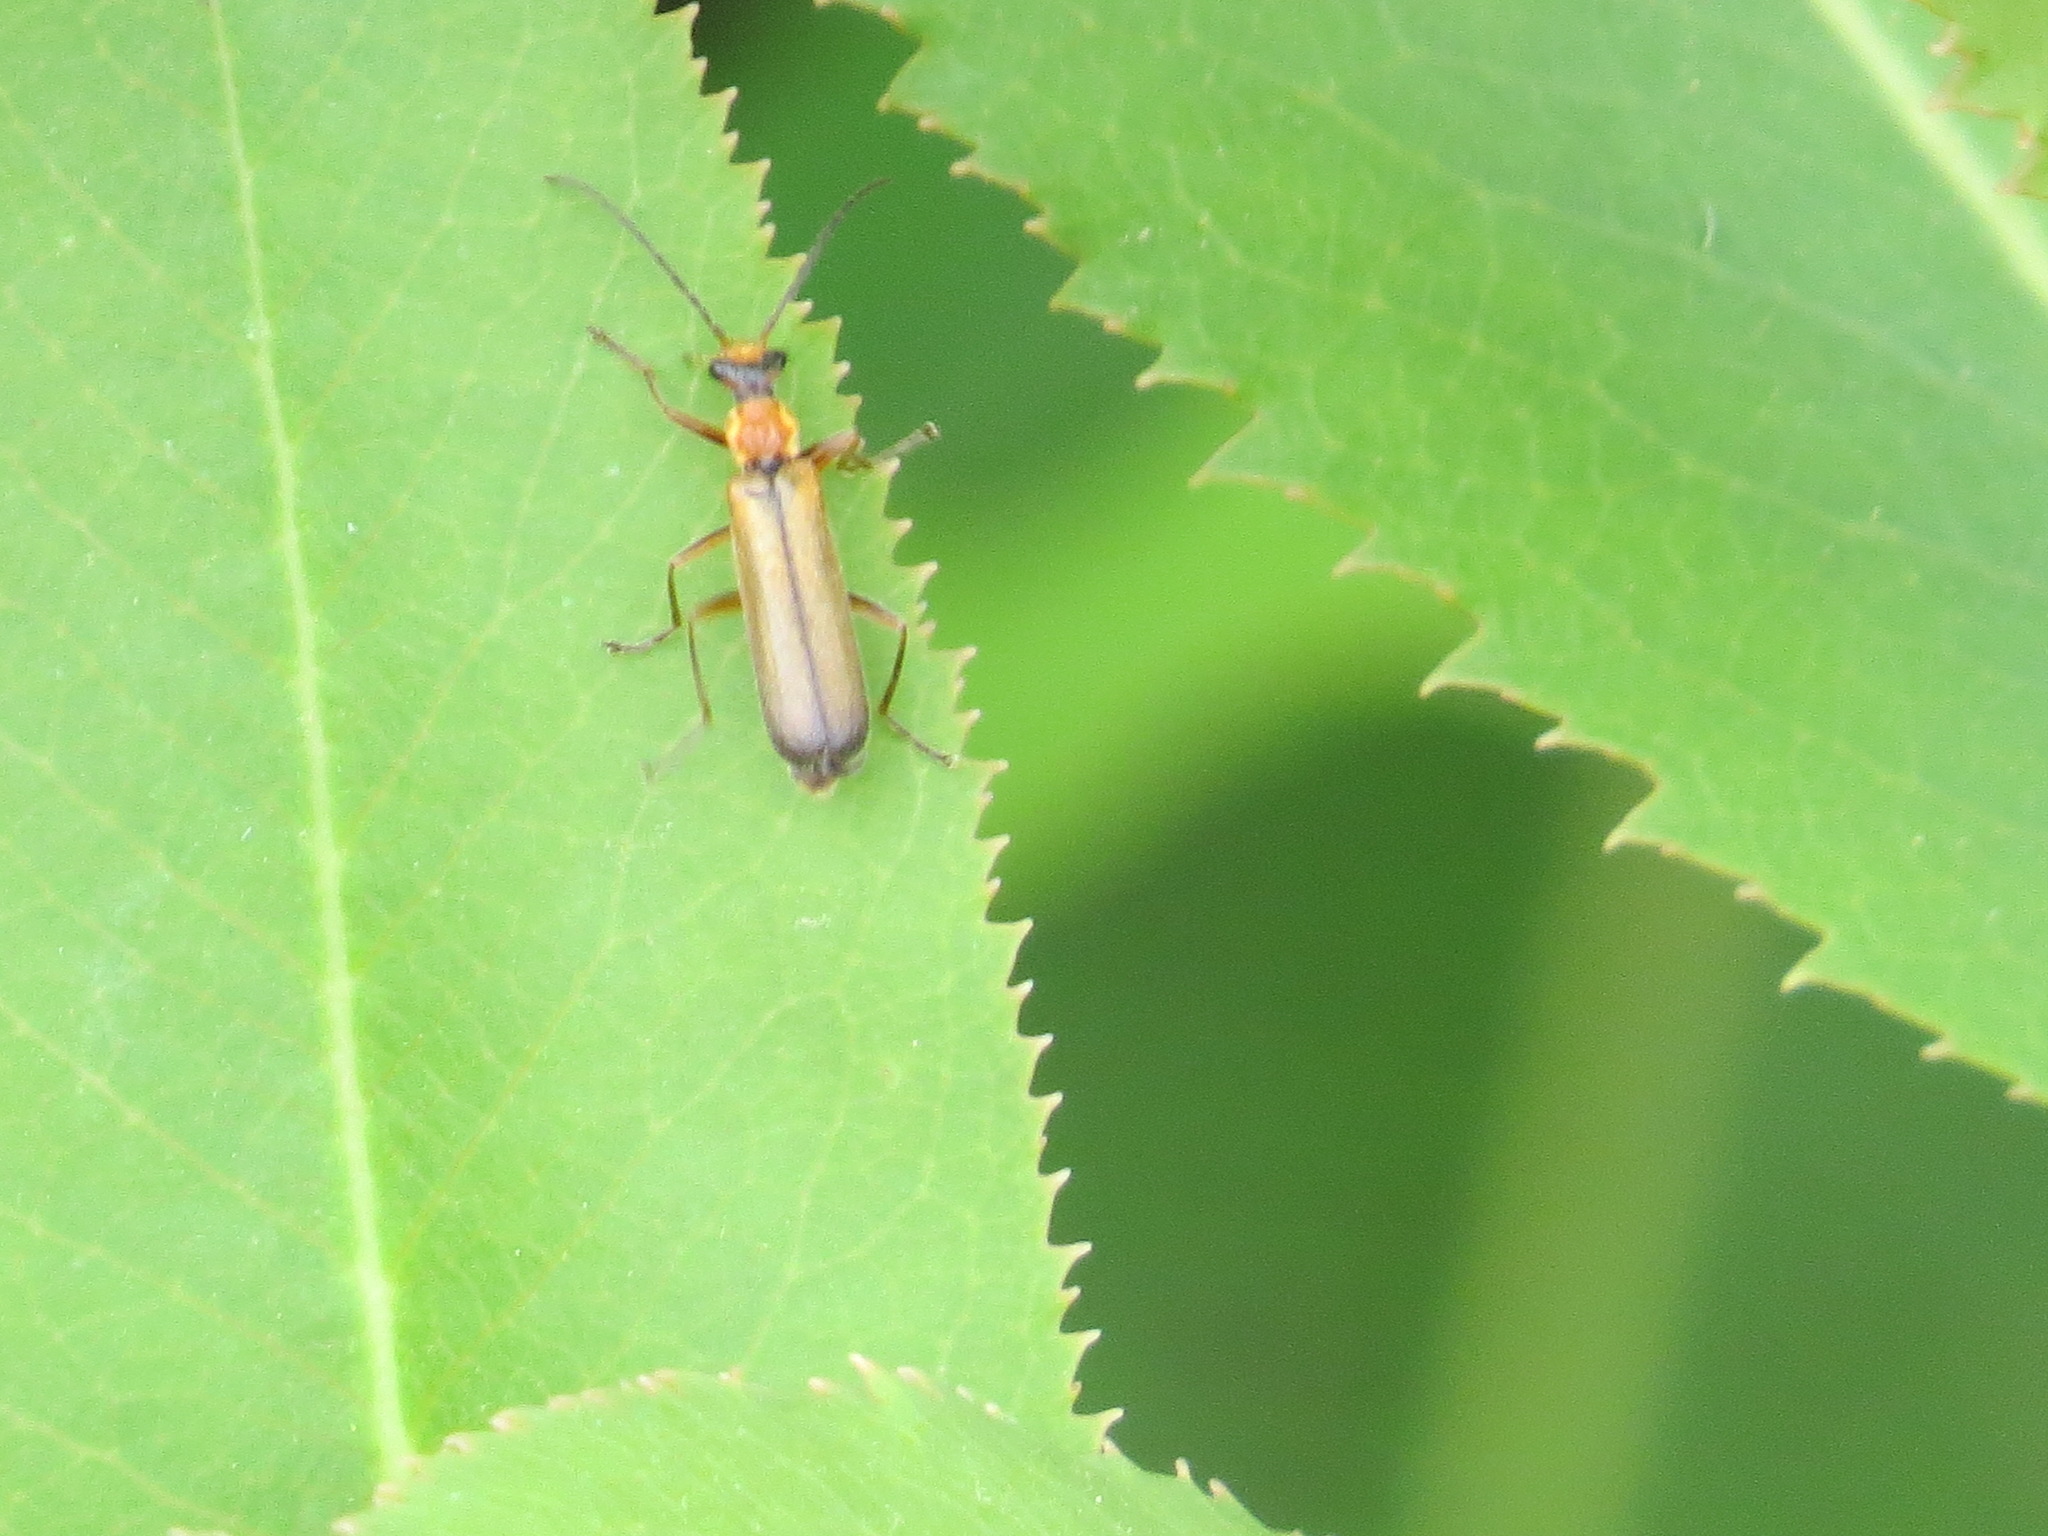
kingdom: Animalia
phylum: Arthropoda
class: Insecta
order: Coleoptera
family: Cantharidae
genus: Dichelotarsus
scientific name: Dichelotarsus cavicollis
